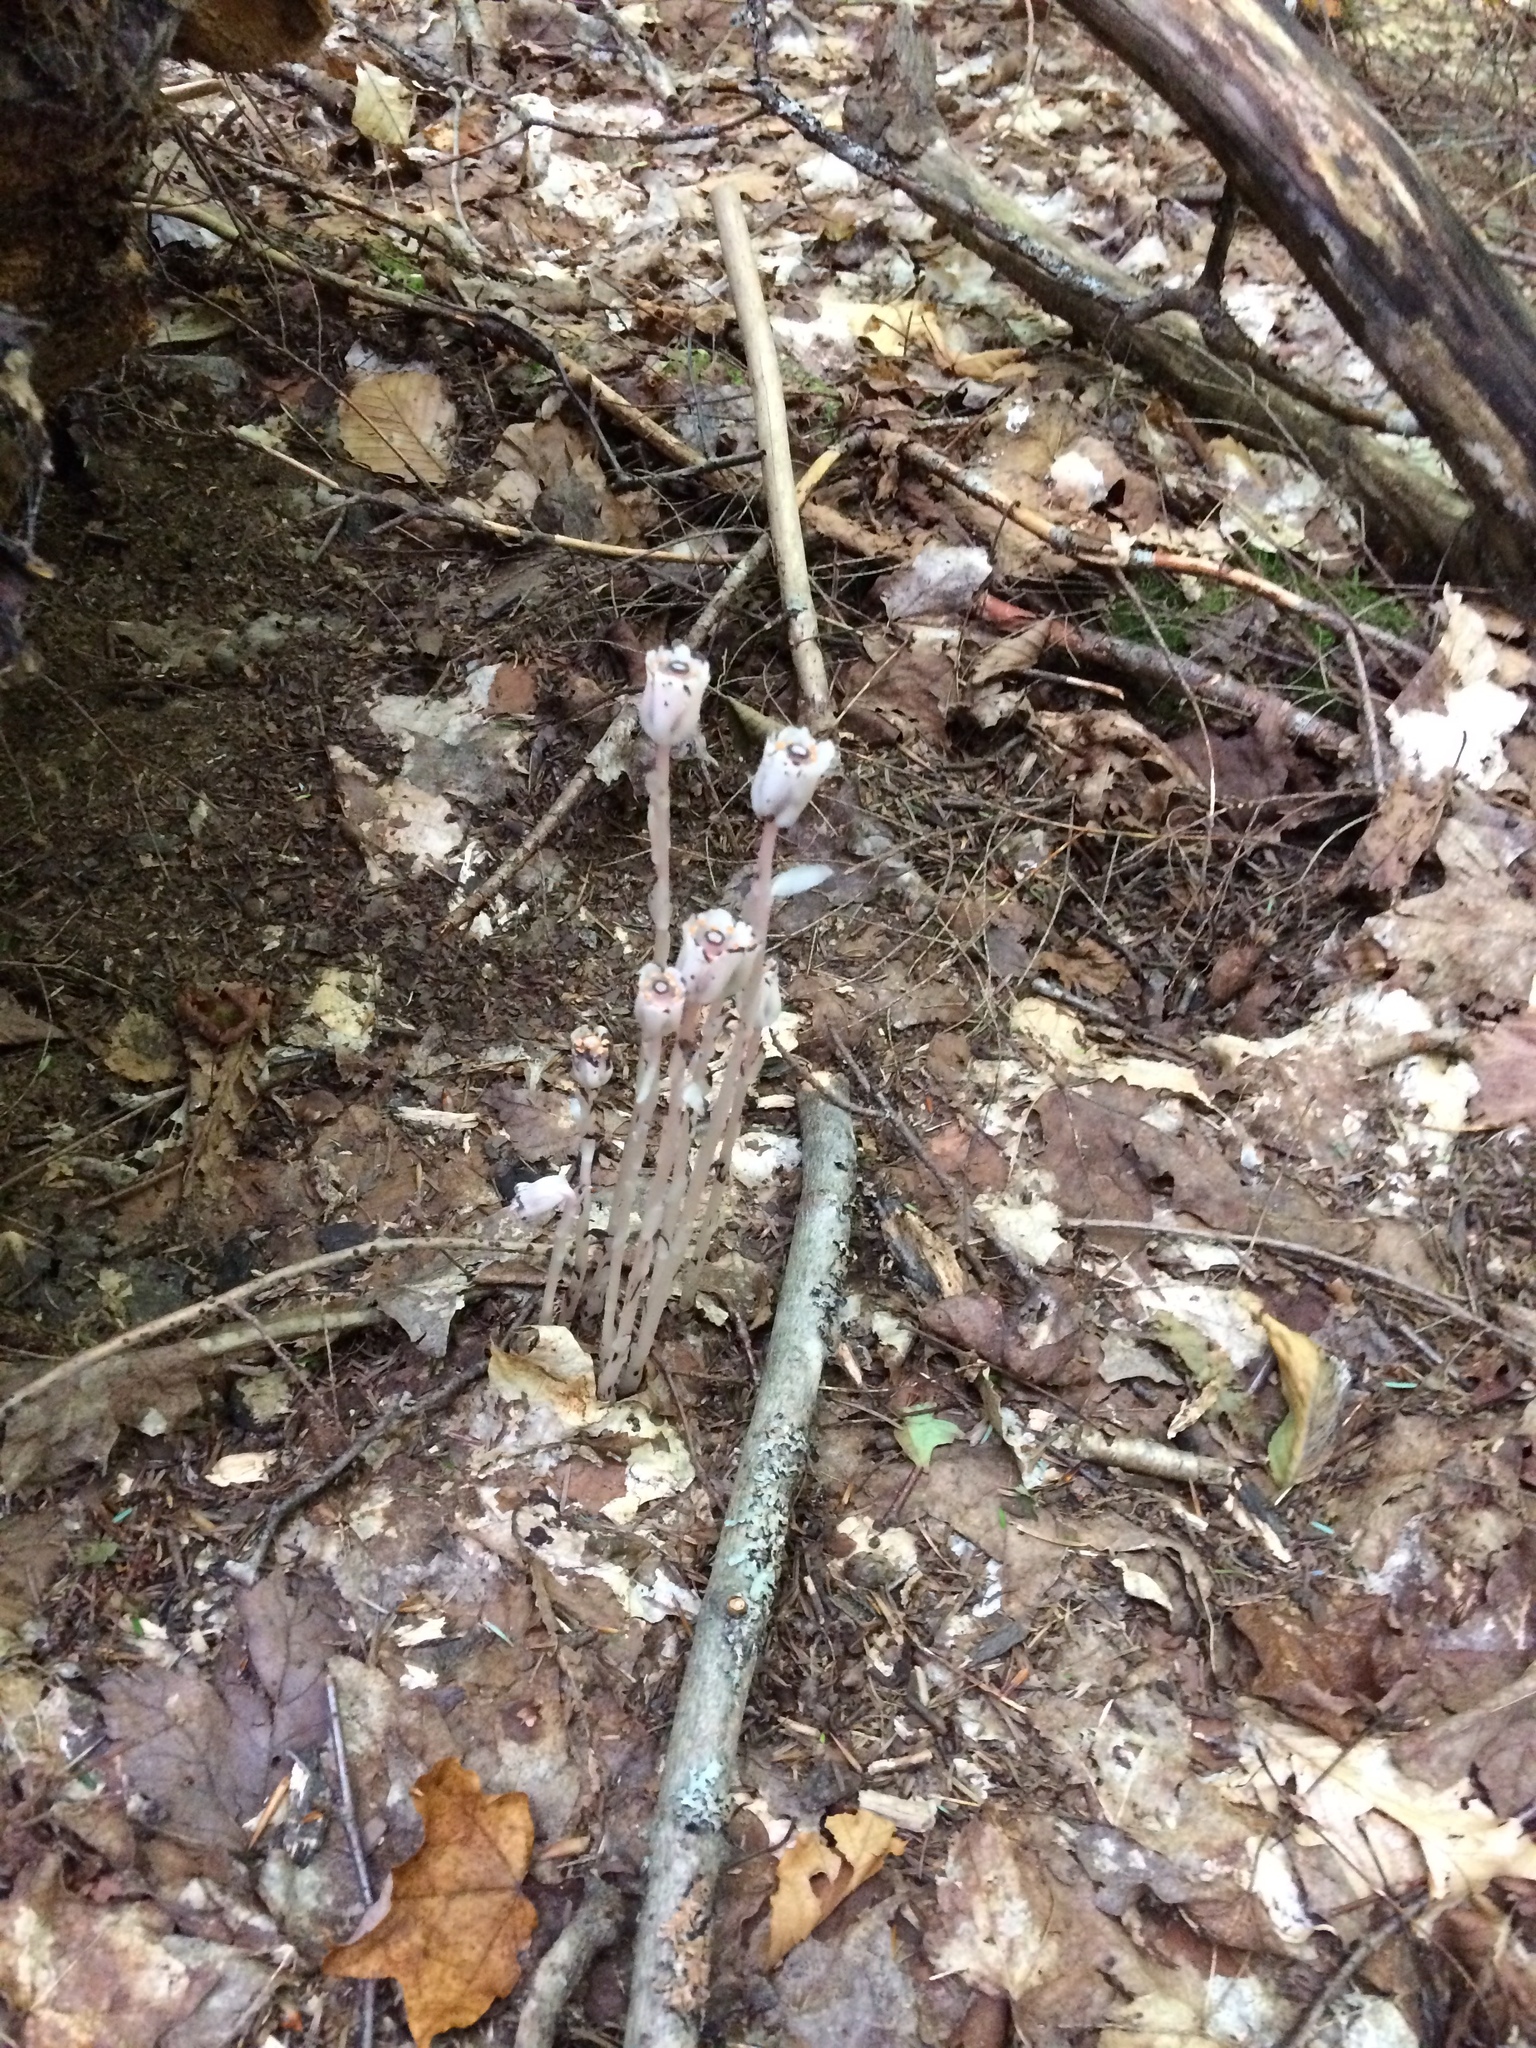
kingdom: Plantae
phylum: Tracheophyta
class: Magnoliopsida
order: Ericales
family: Ericaceae
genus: Monotropa
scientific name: Monotropa uniflora
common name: Convulsion root
